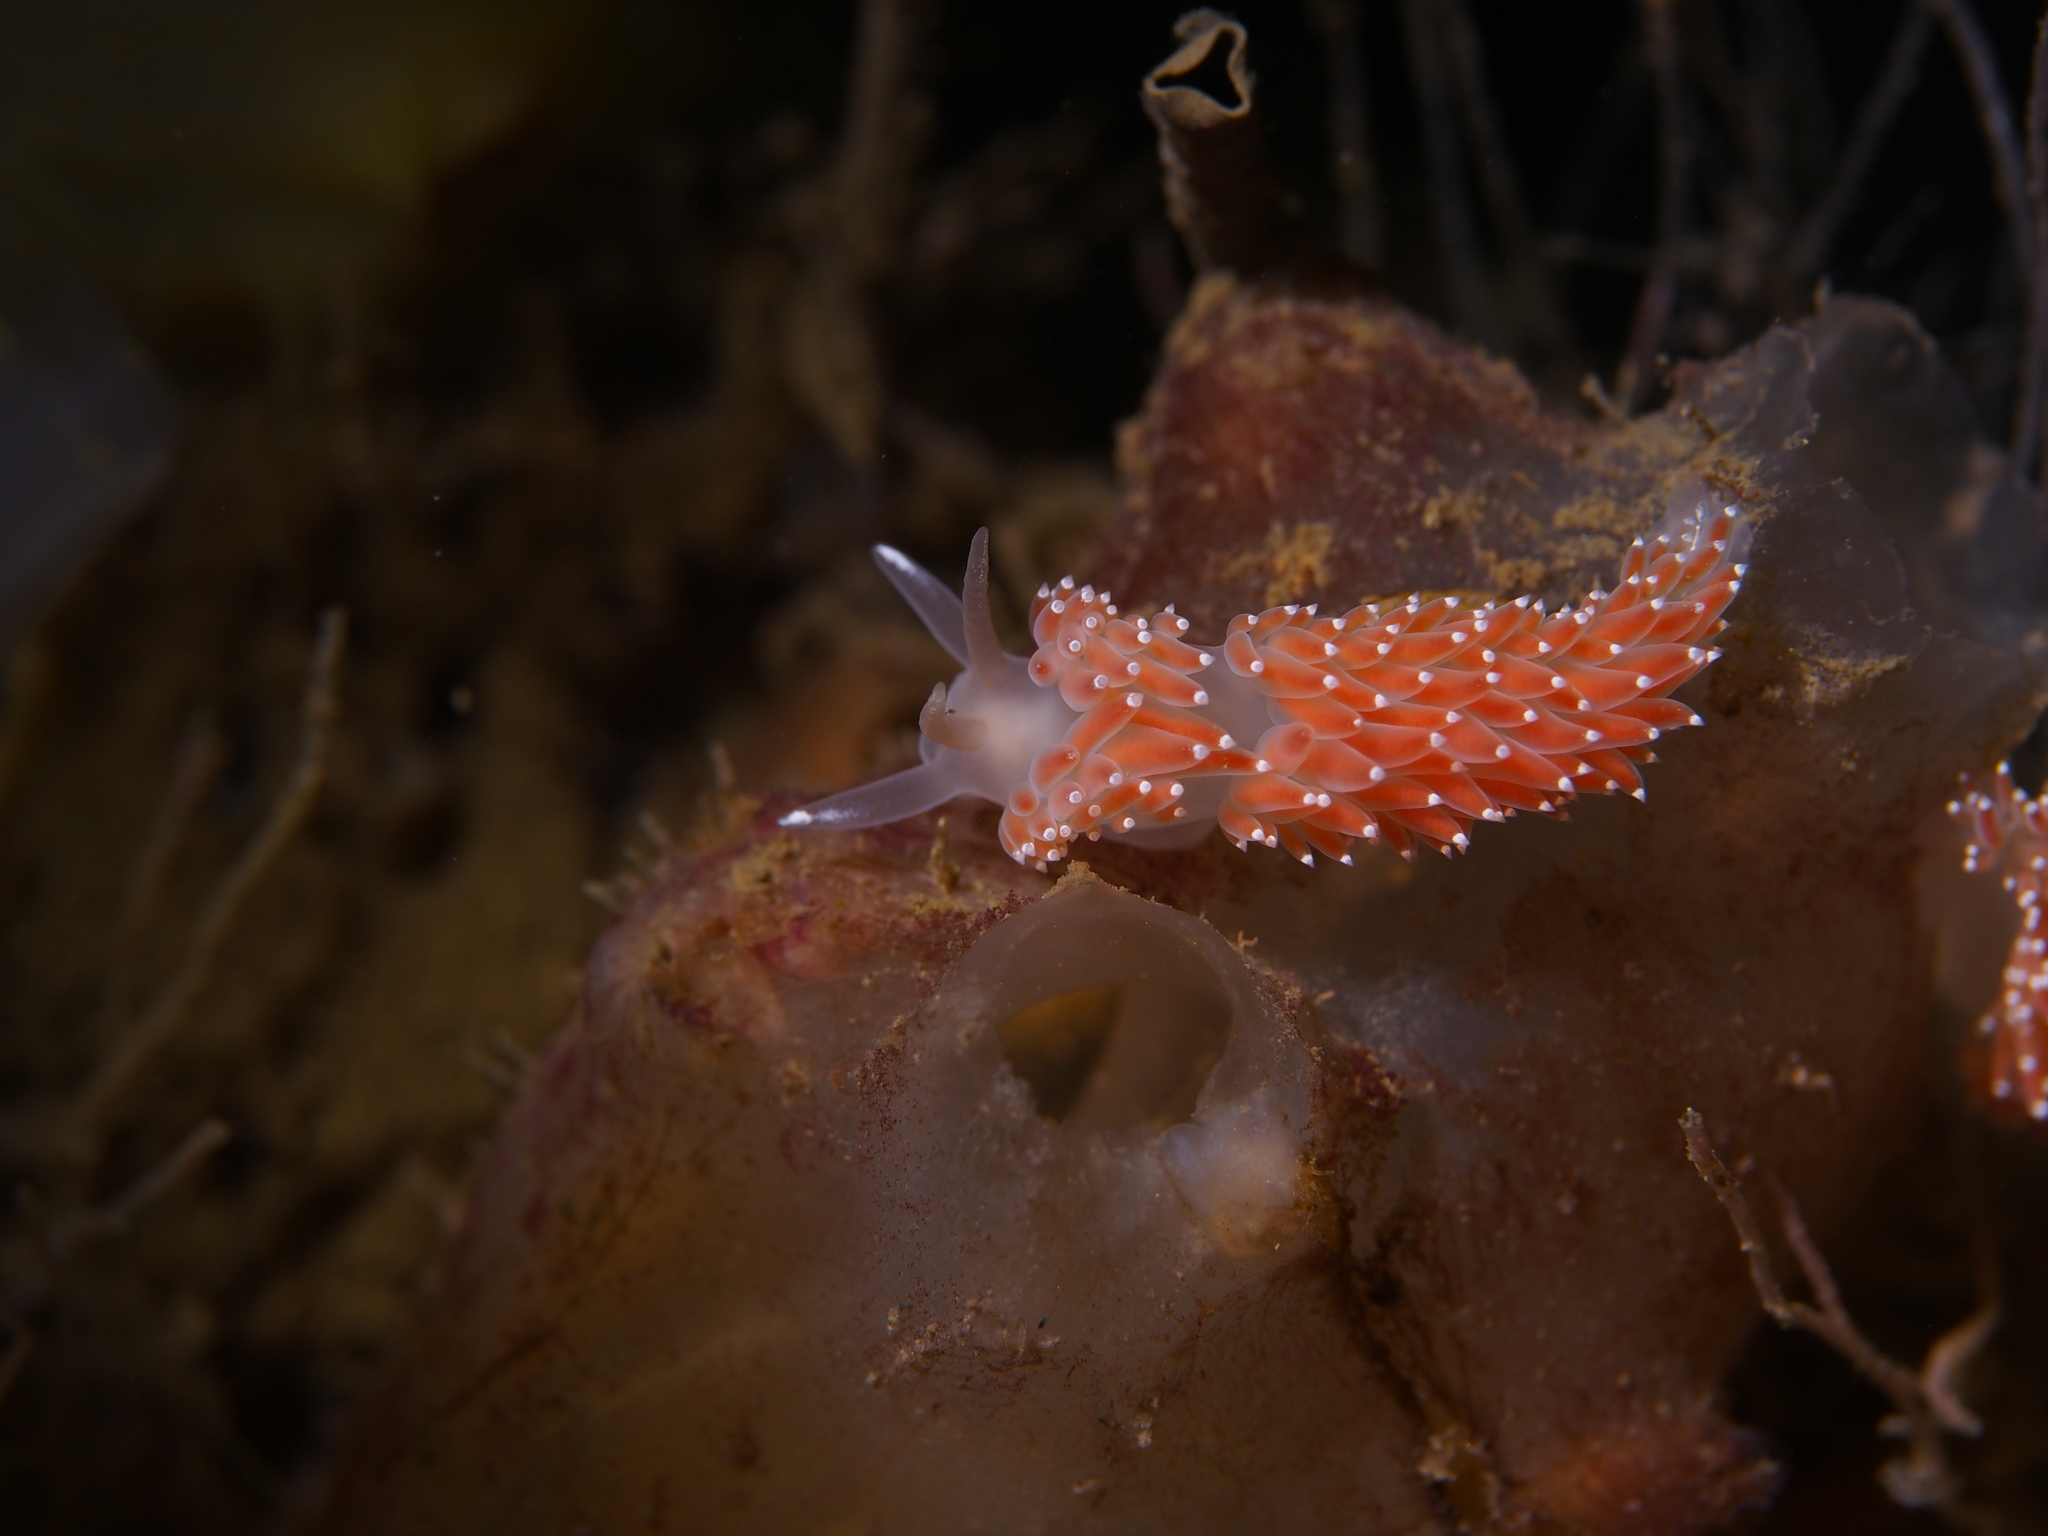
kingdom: Animalia
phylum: Mollusca
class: Gastropoda
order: Nudibranchia
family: Coryphellidae
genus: Coryphella
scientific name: Coryphella verrucosa
